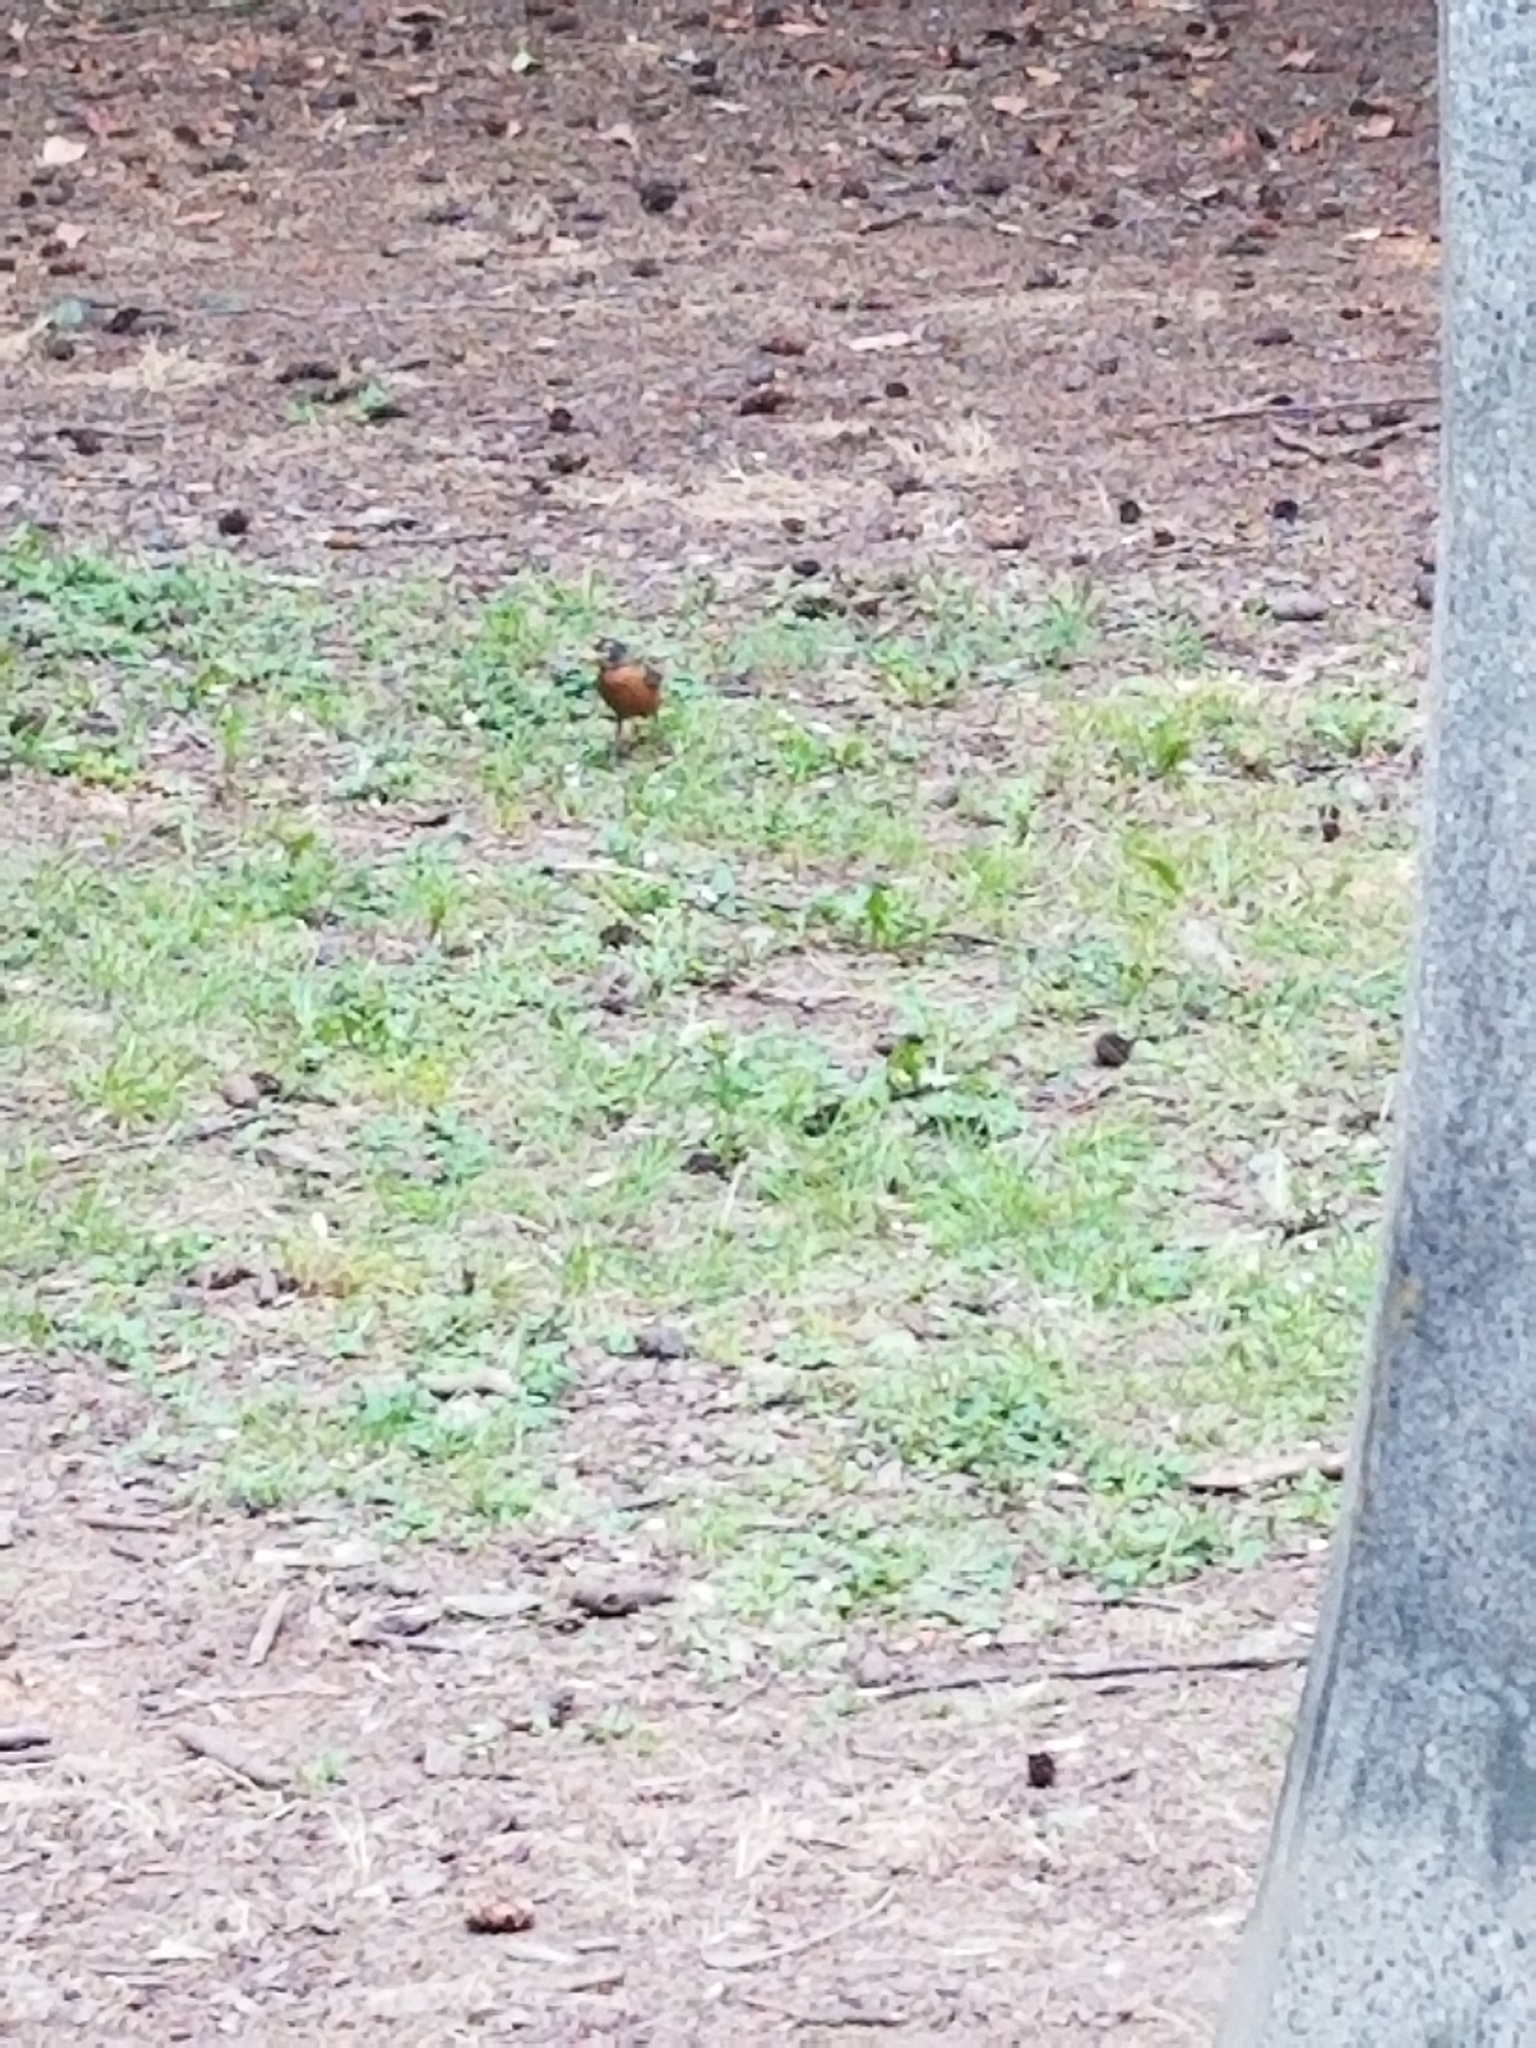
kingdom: Animalia
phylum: Chordata
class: Aves
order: Passeriformes
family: Turdidae
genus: Turdus
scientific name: Turdus migratorius
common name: American robin
